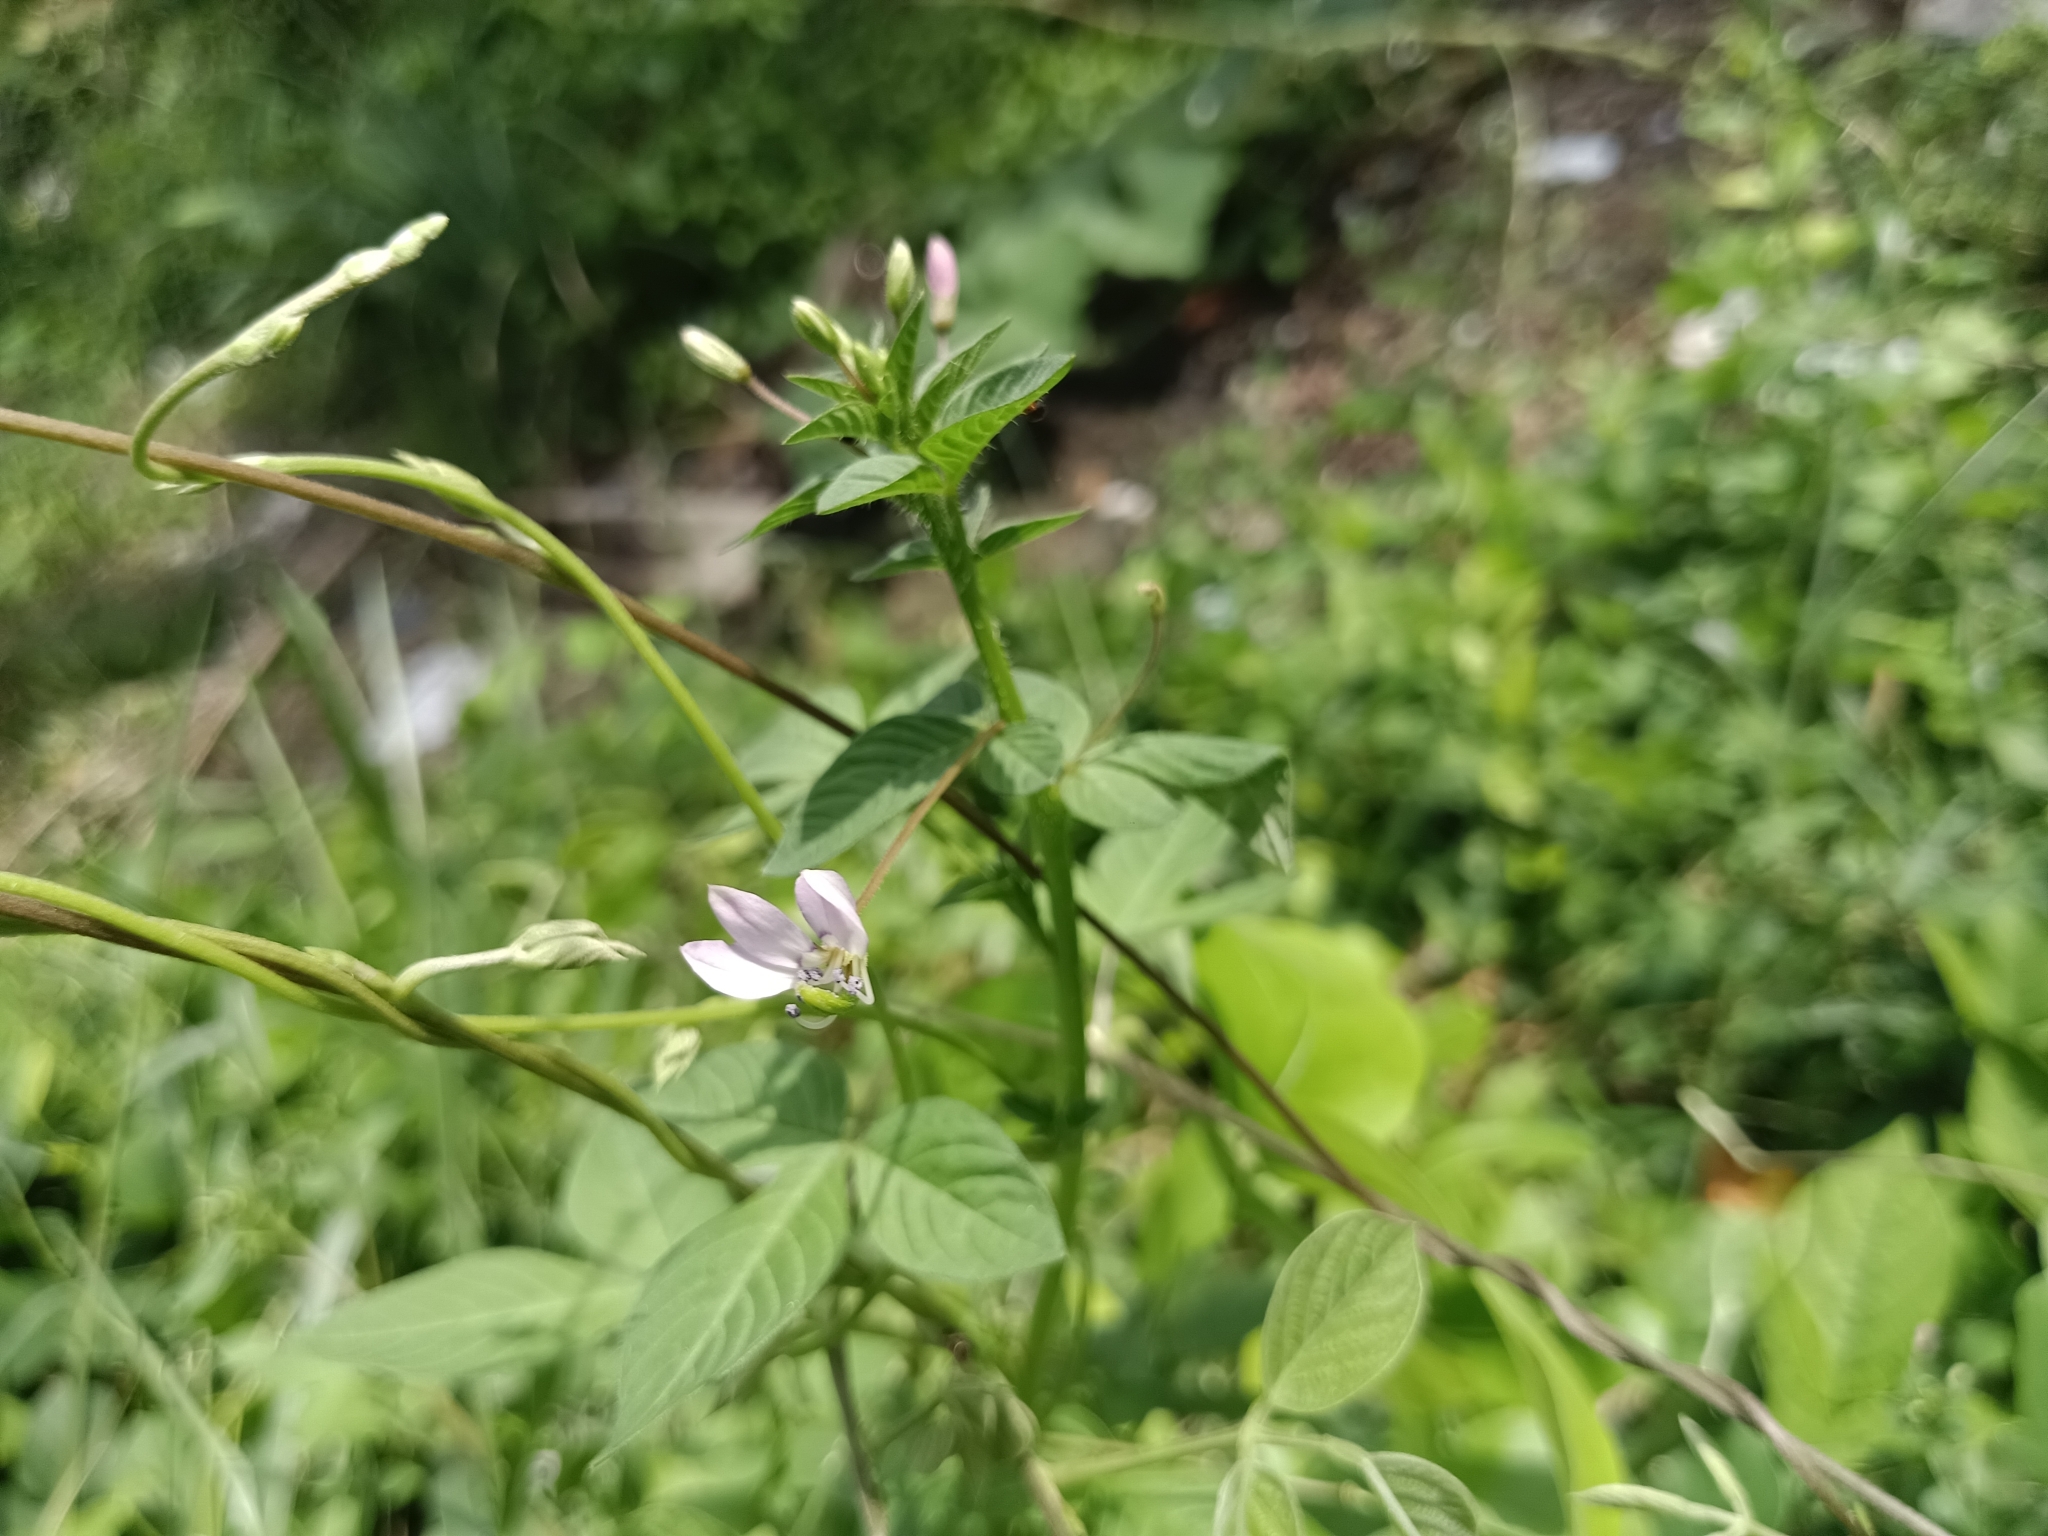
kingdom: Plantae
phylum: Tracheophyta
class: Magnoliopsida
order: Brassicales
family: Cleomaceae
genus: Sieruela
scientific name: Sieruela rutidosperma
